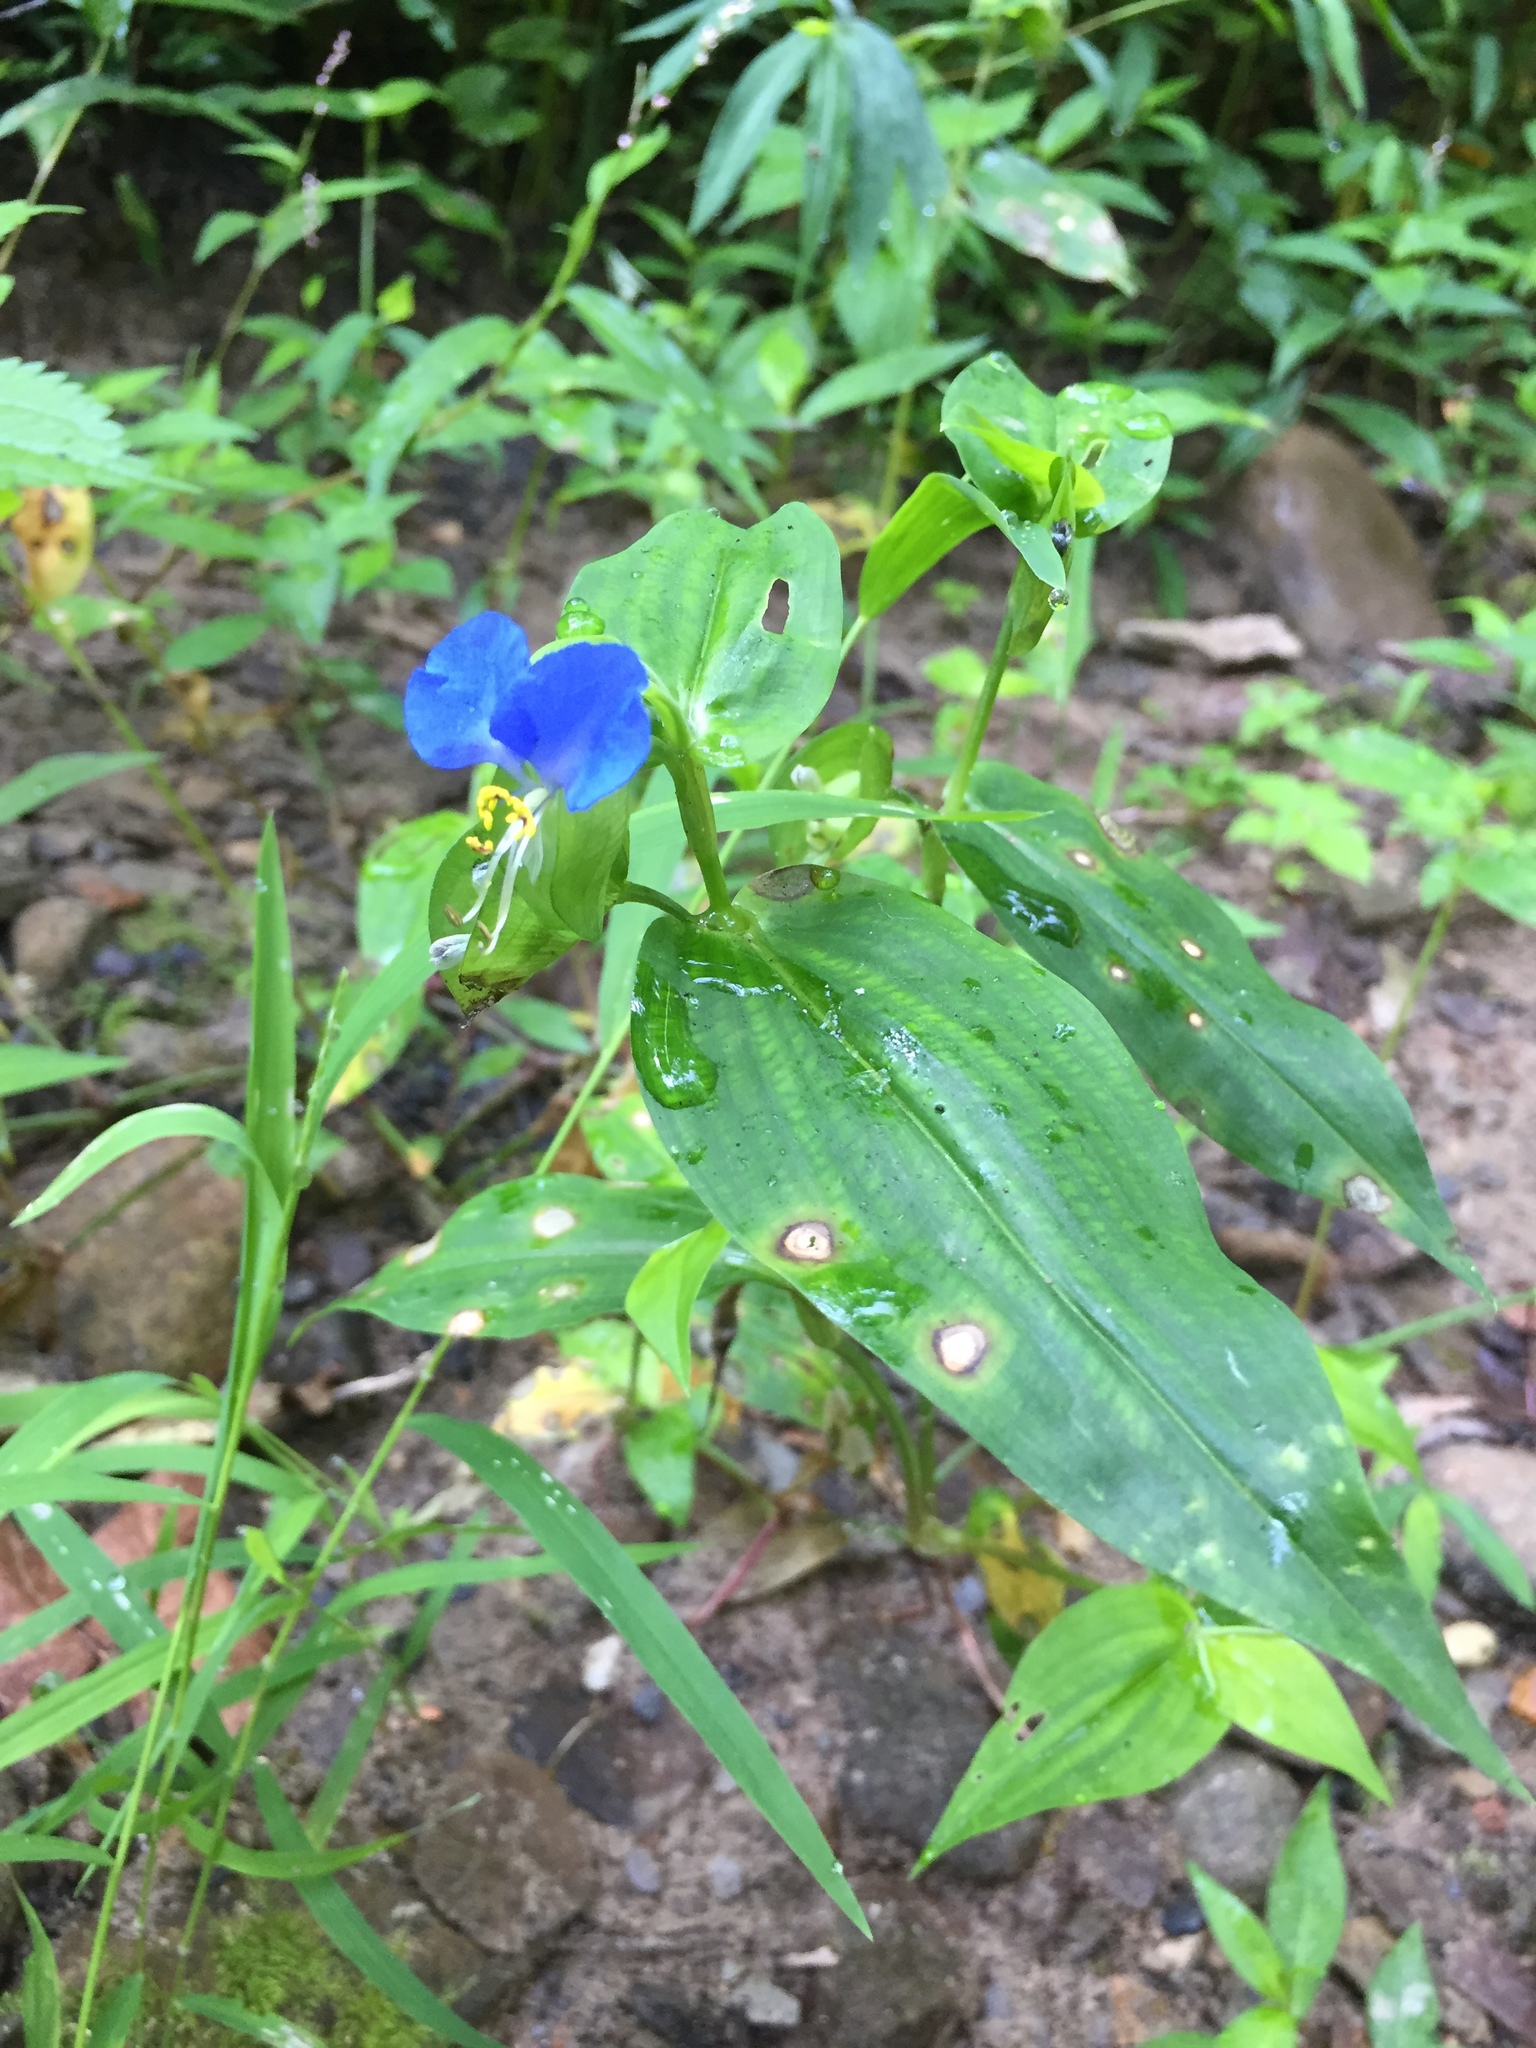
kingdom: Plantae
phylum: Tracheophyta
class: Liliopsida
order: Commelinales
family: Commelinaceae
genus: Commelina
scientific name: Commelina communis
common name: Asiatic dayflower
